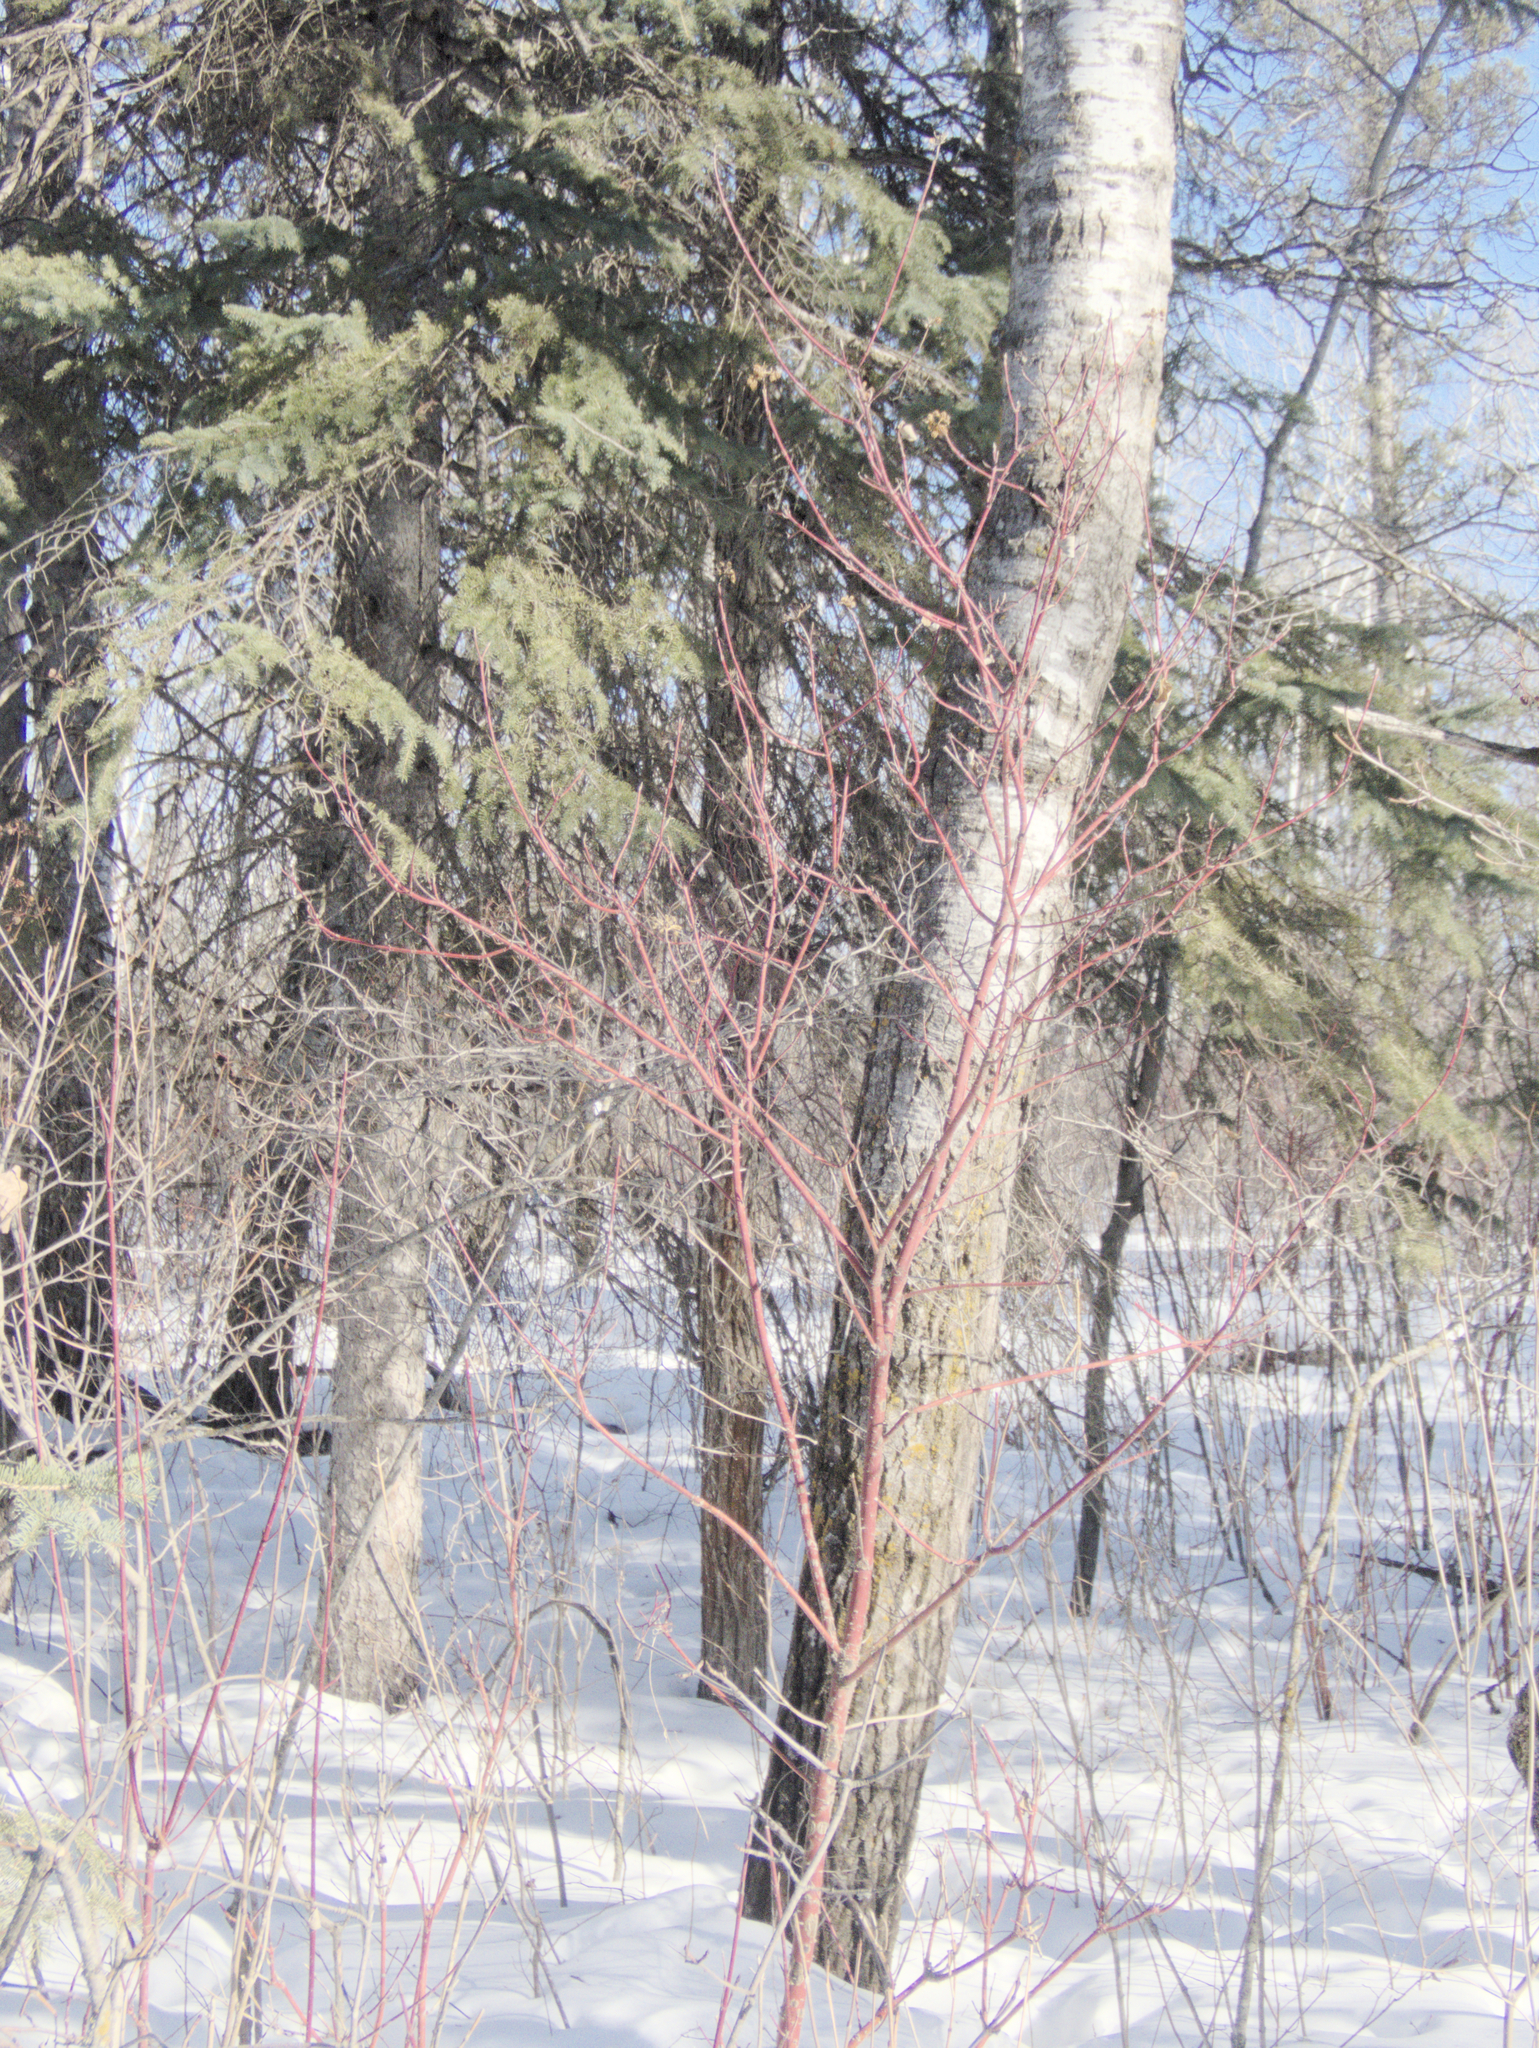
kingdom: Plantae
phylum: Tracheophyta
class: Magnoliopsida
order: Cornales
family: Cornaceae
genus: Cornus
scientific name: Cornus sericea
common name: Red-osier dogwood
